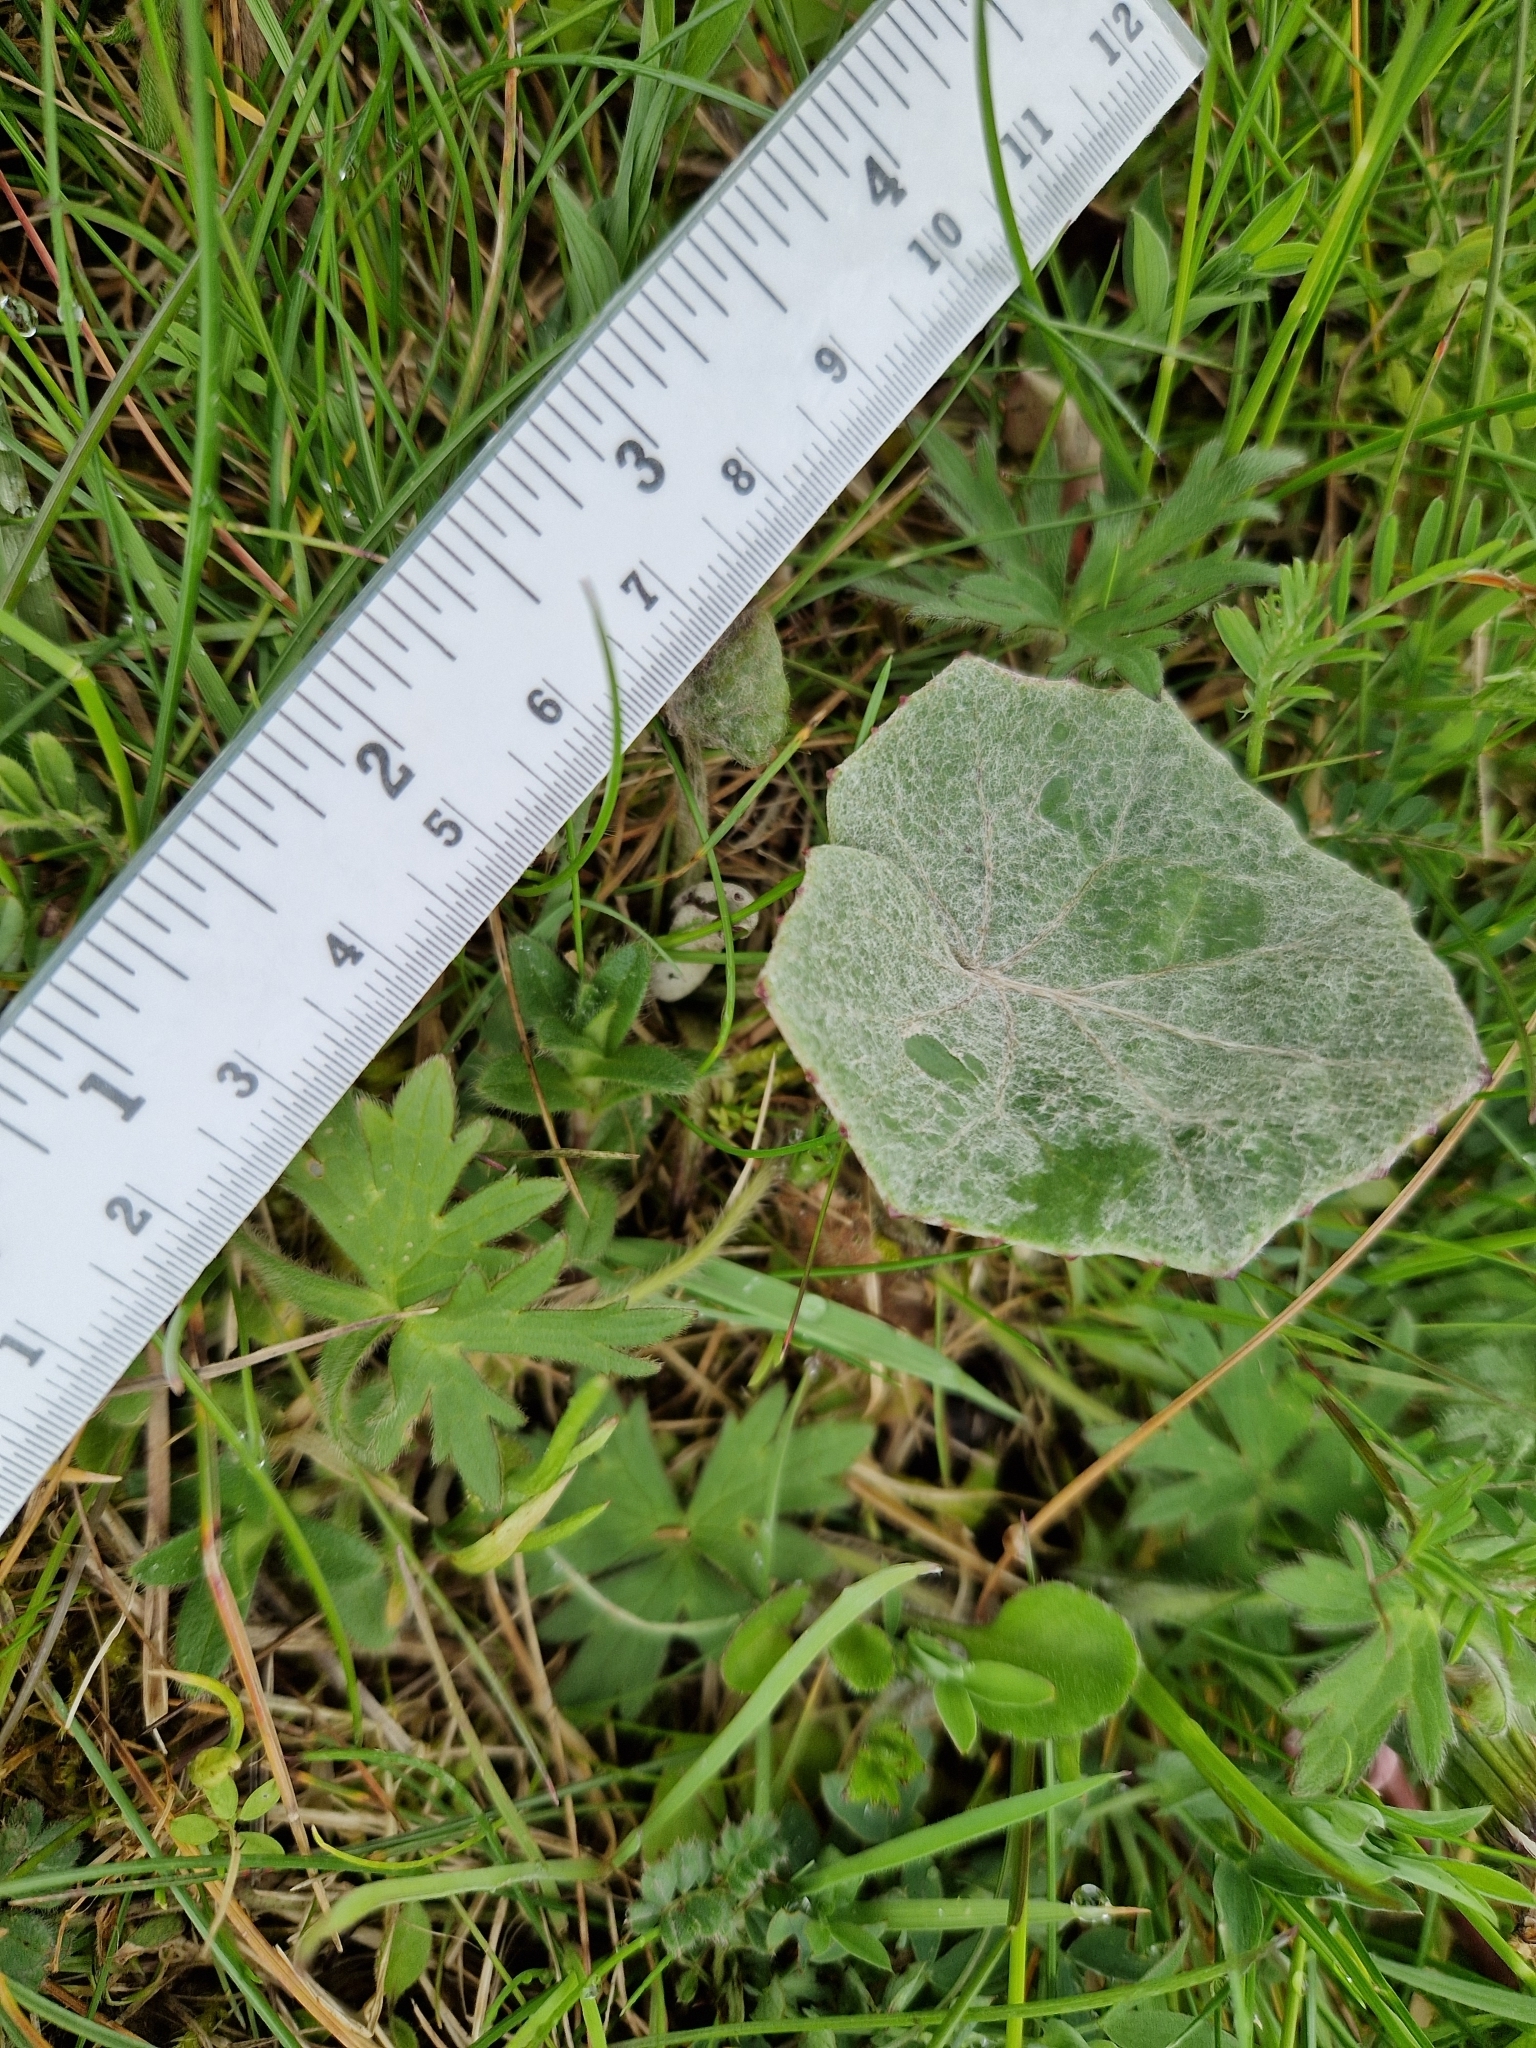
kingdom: Plantae
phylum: Tracheophyta
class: Magnoliopsida
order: Asterales
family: Asteraceae
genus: Tussilago
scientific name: Tussilago farfara
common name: Coltsfoot
